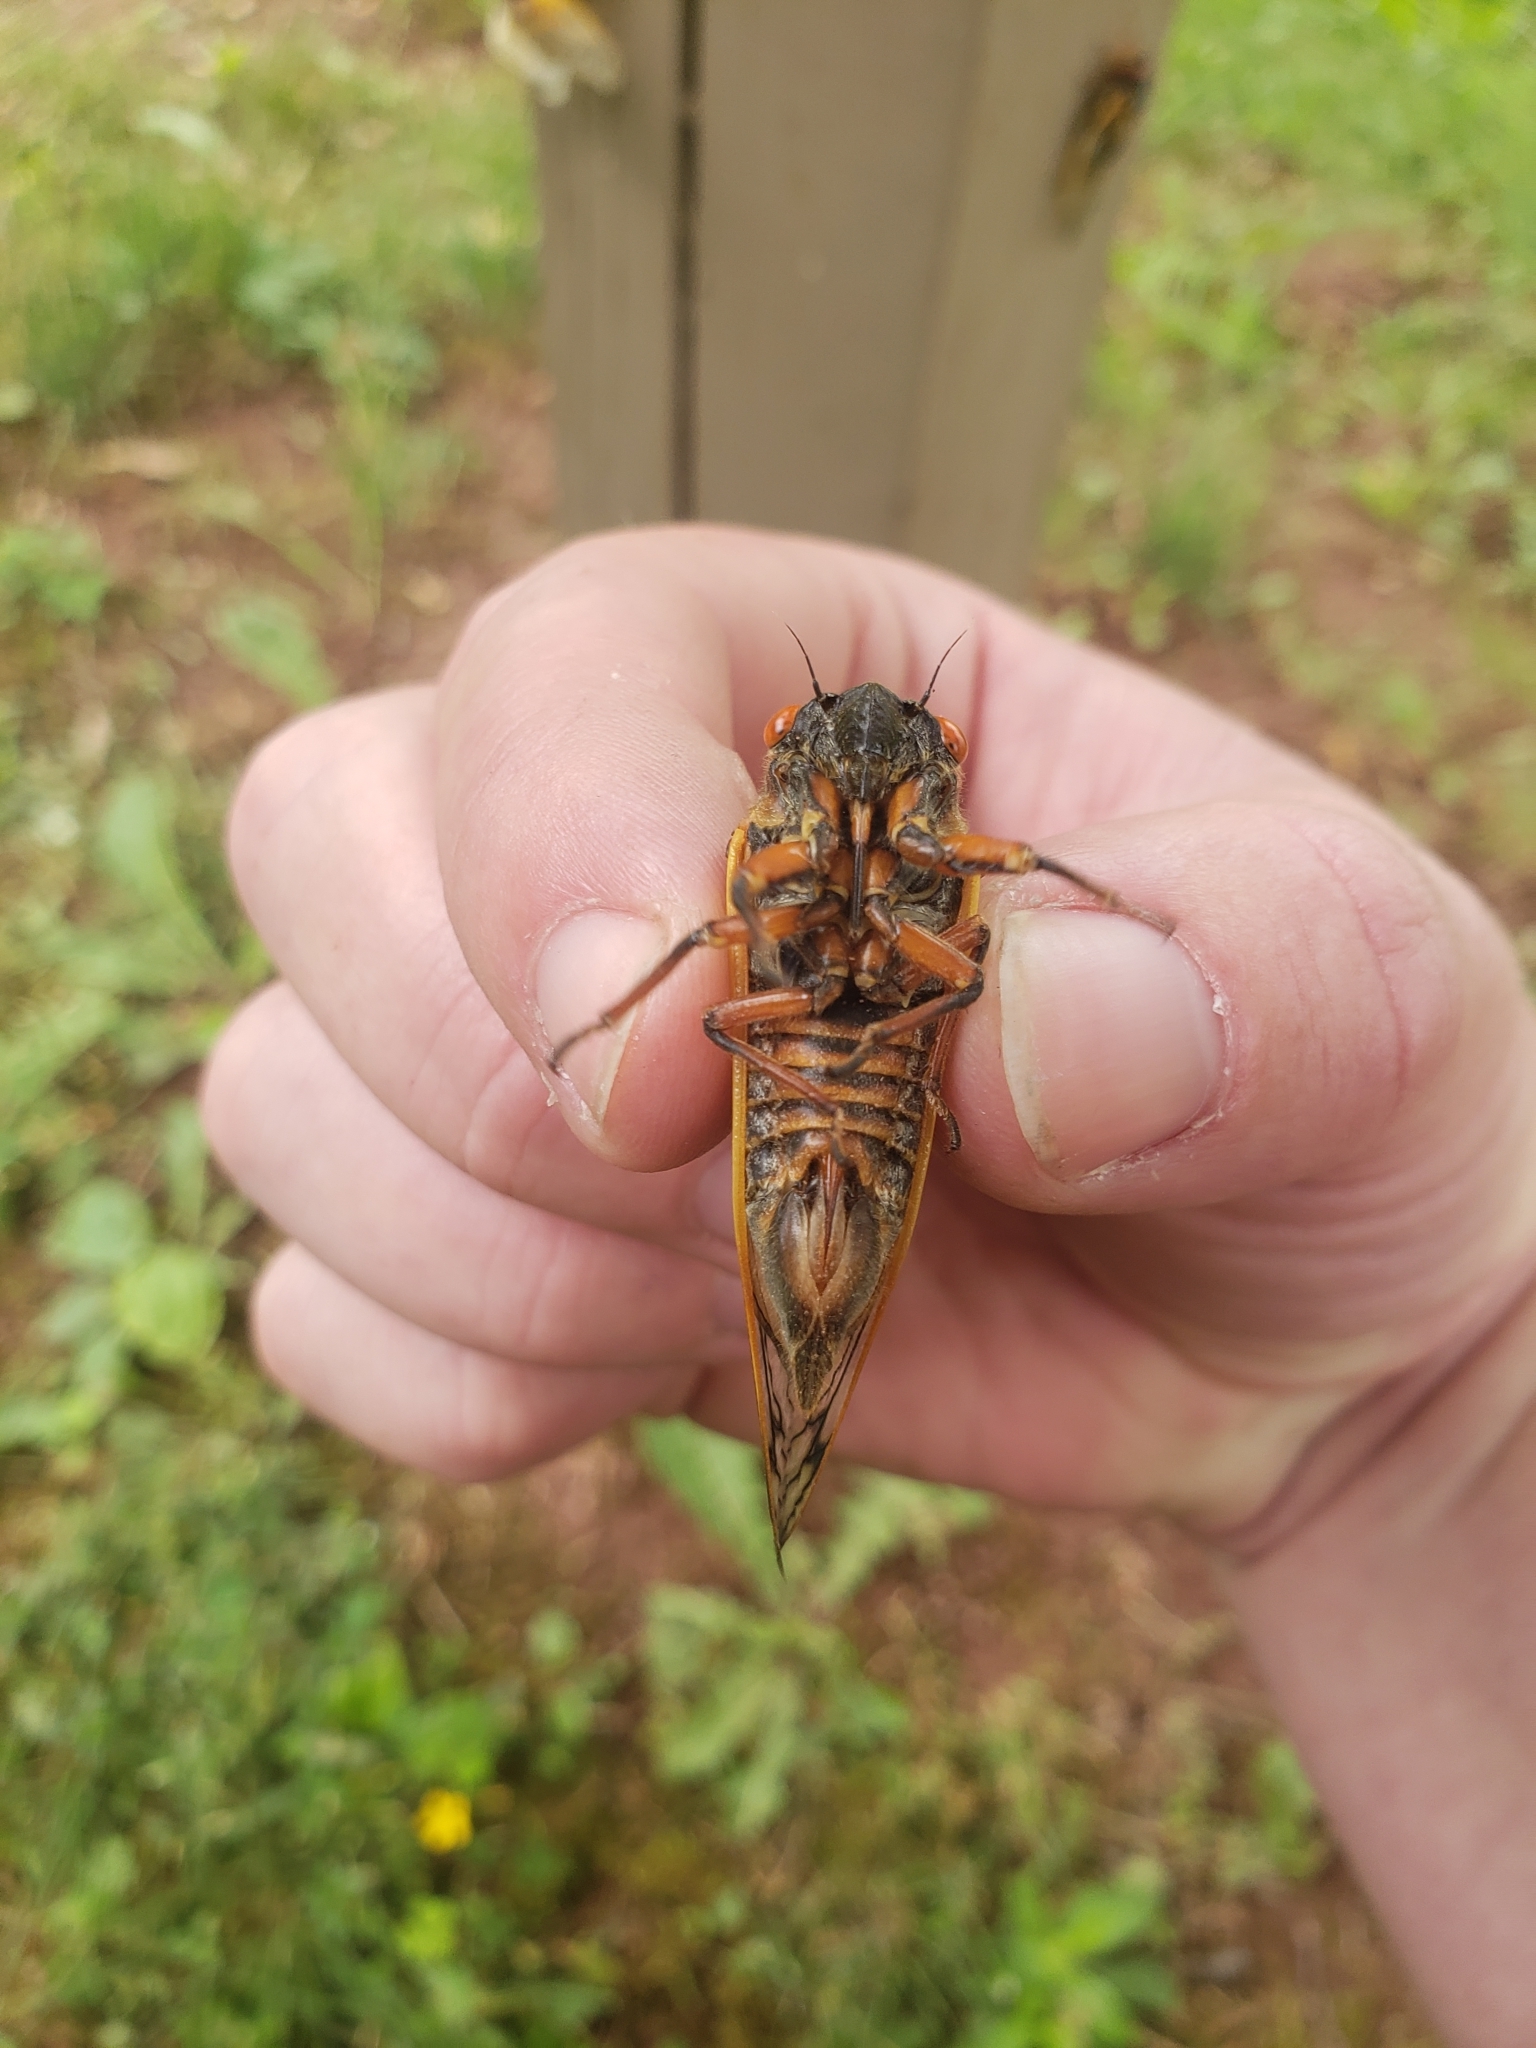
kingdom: Animalia
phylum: Arthropoda
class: Insecta
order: Hemiptera
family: Cicadidae
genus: Magicicada
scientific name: Magicicada septendecim
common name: Periodical cicada
